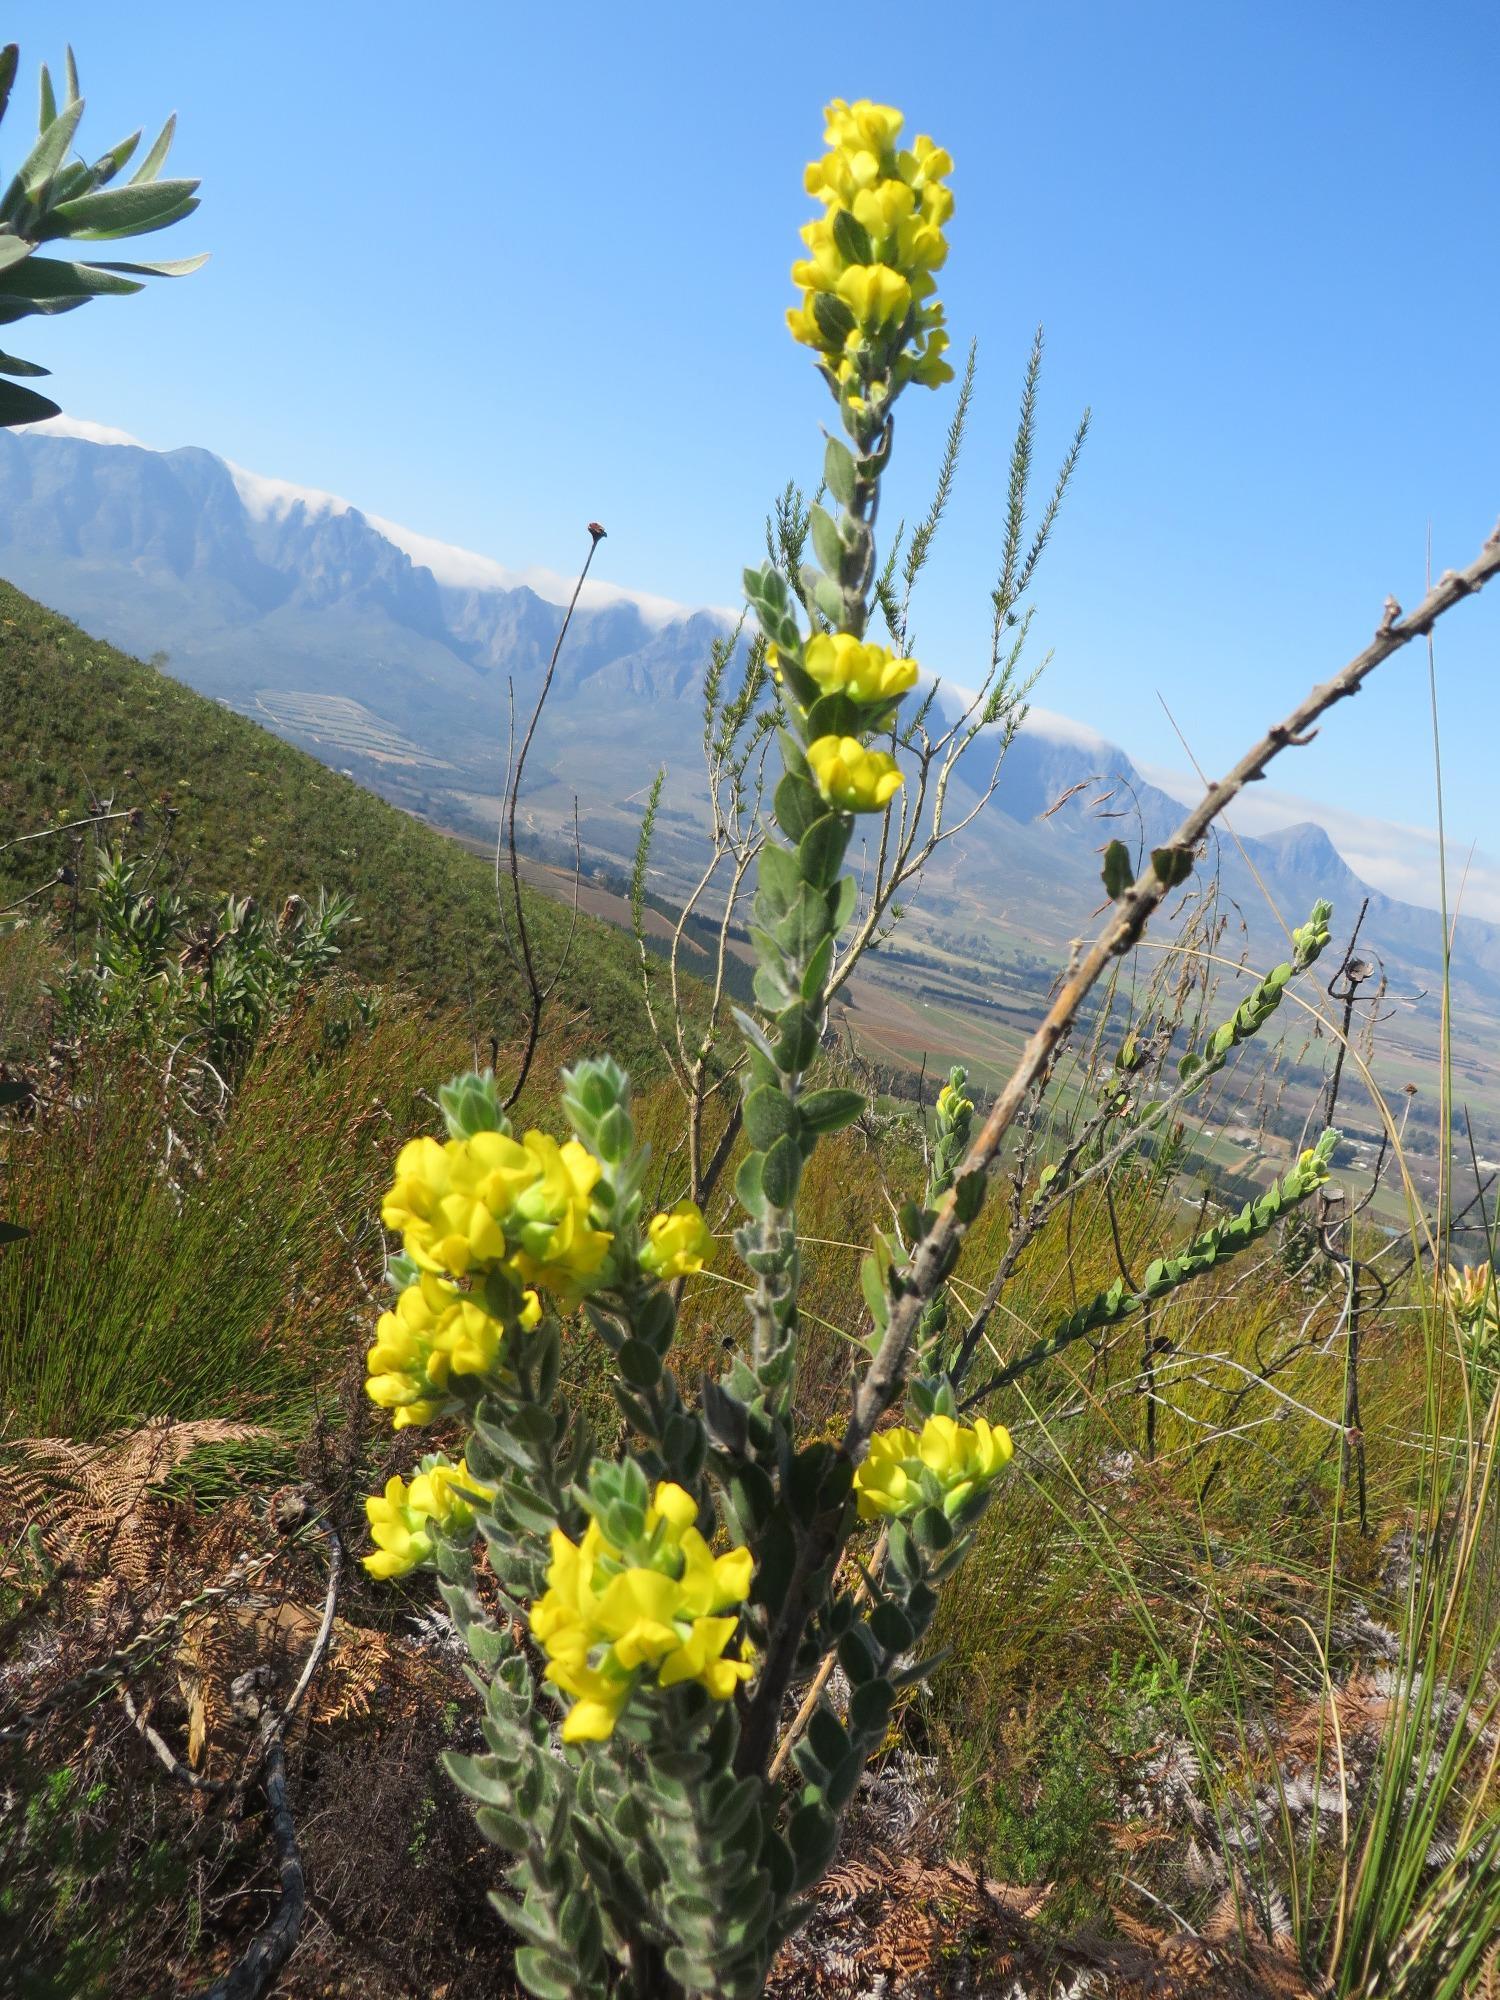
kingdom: Plantae
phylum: Tracheophyta
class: Magnoliopsida
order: Fabales
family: Fabaceae
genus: Xiphotheca
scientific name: Xiphotheca tecta
